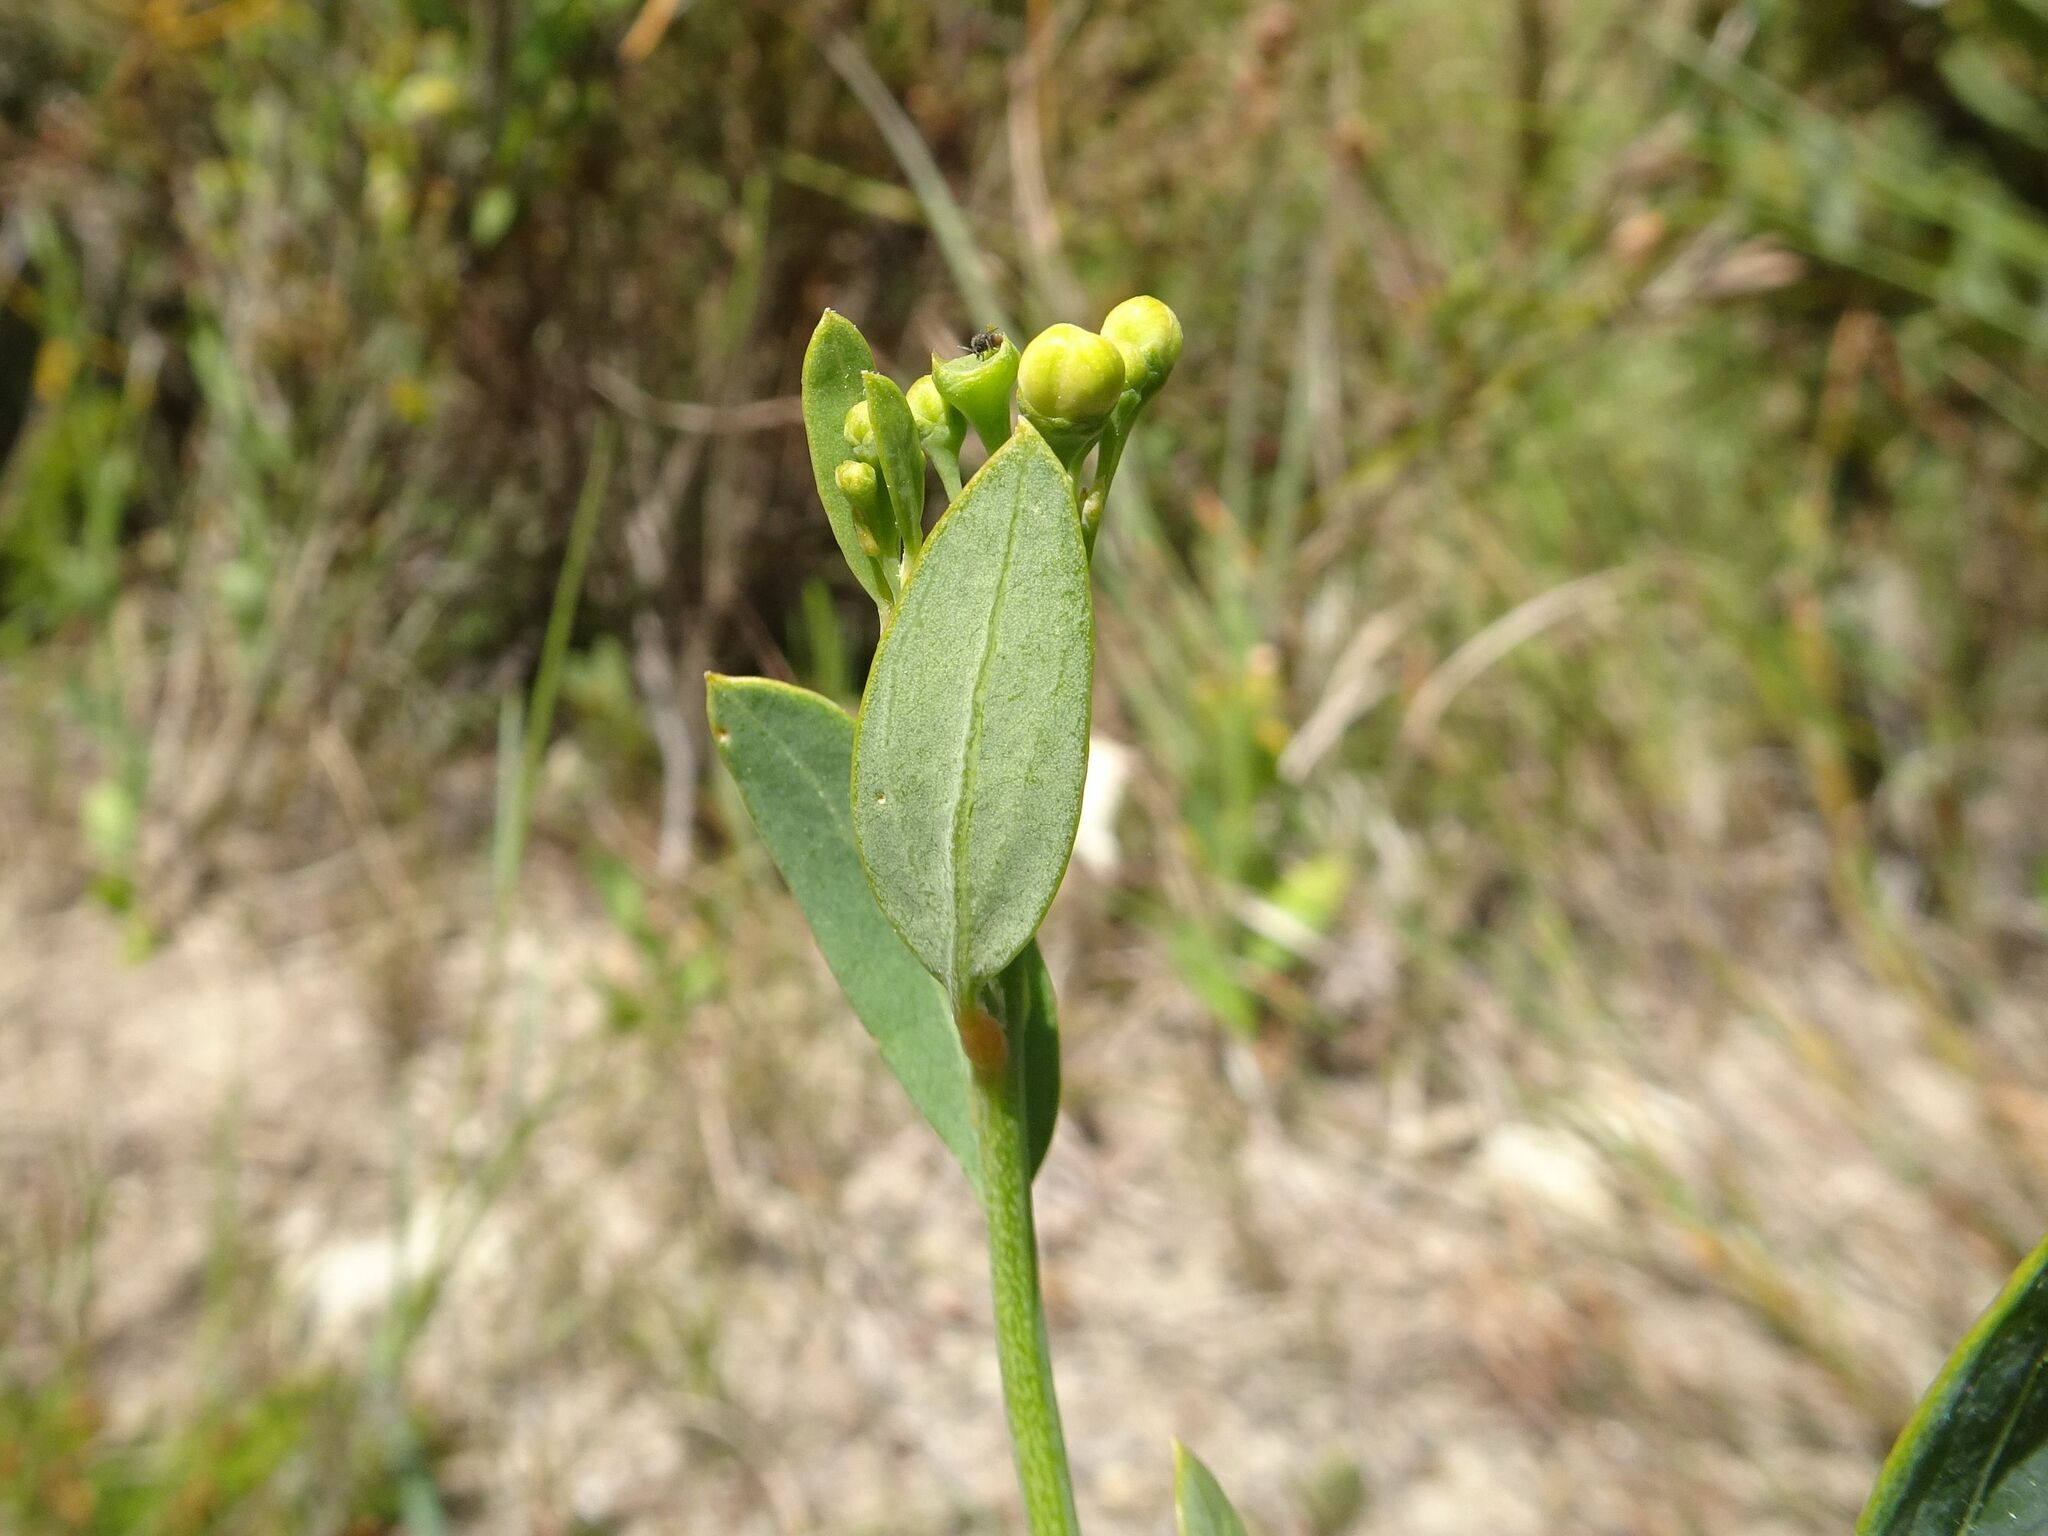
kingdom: Plantae
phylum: Tracheophyta
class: Magnoliopsida
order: Solanales
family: Montiniaceae
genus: Montinia
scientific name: Montinia caryophyllacea
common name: Wild clove-bush
